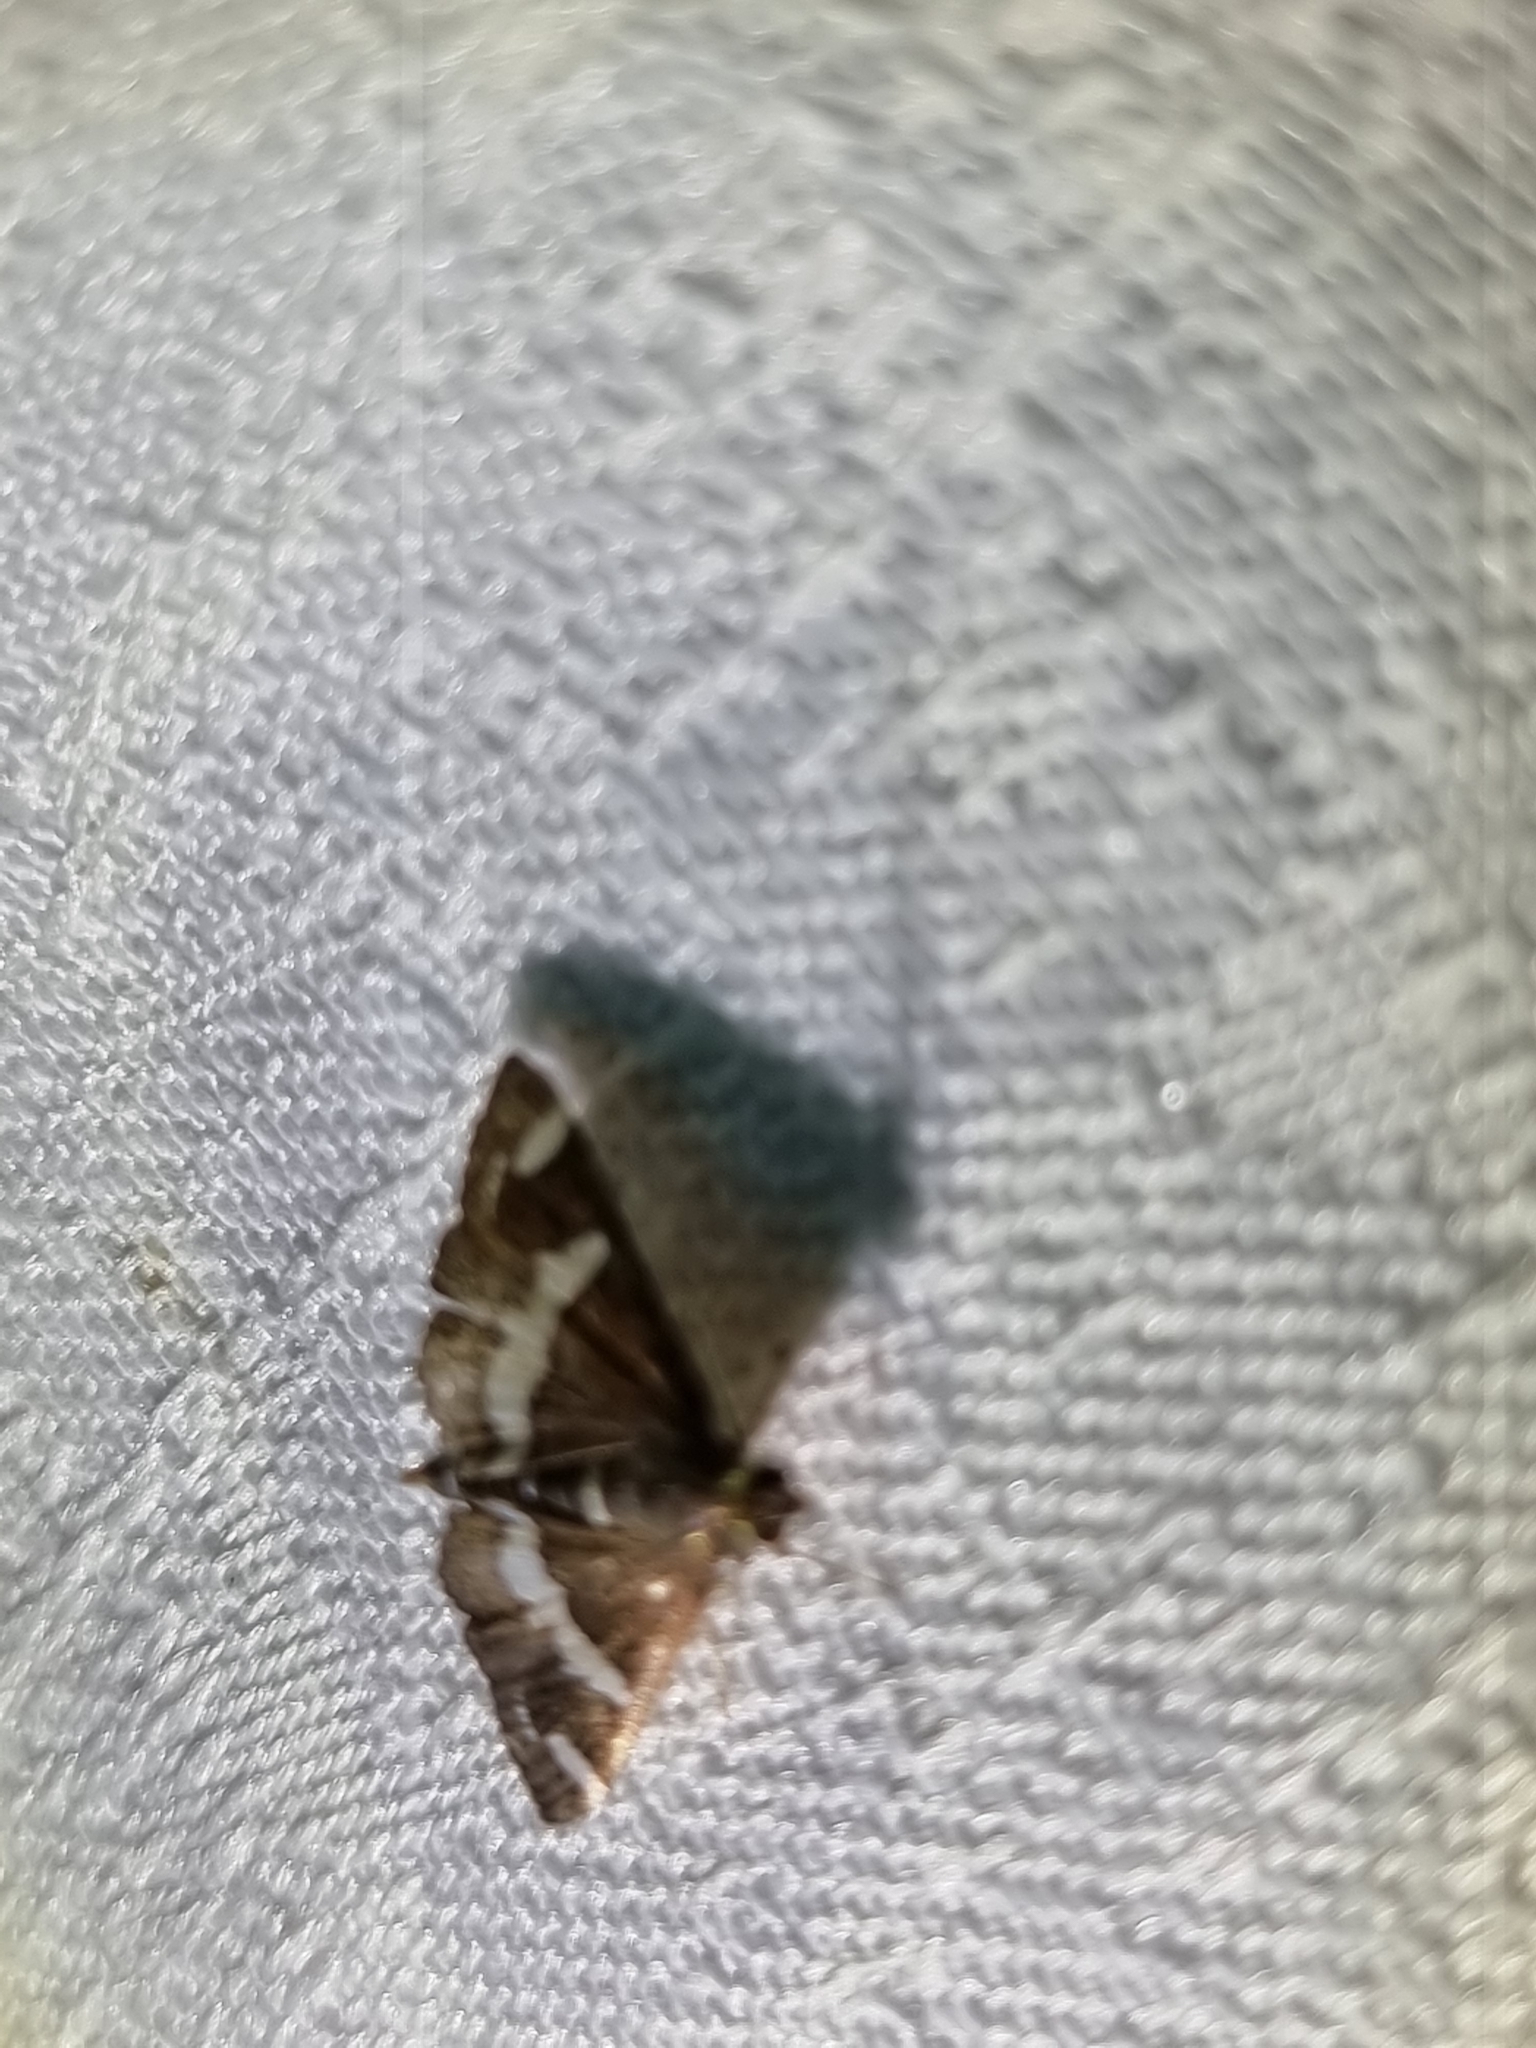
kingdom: Animalia
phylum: Arthropoda
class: Insecta
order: Lepidoptera
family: Crambidae
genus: Spoladea
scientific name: Spoladea recurvalis
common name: Beet webworm moth
